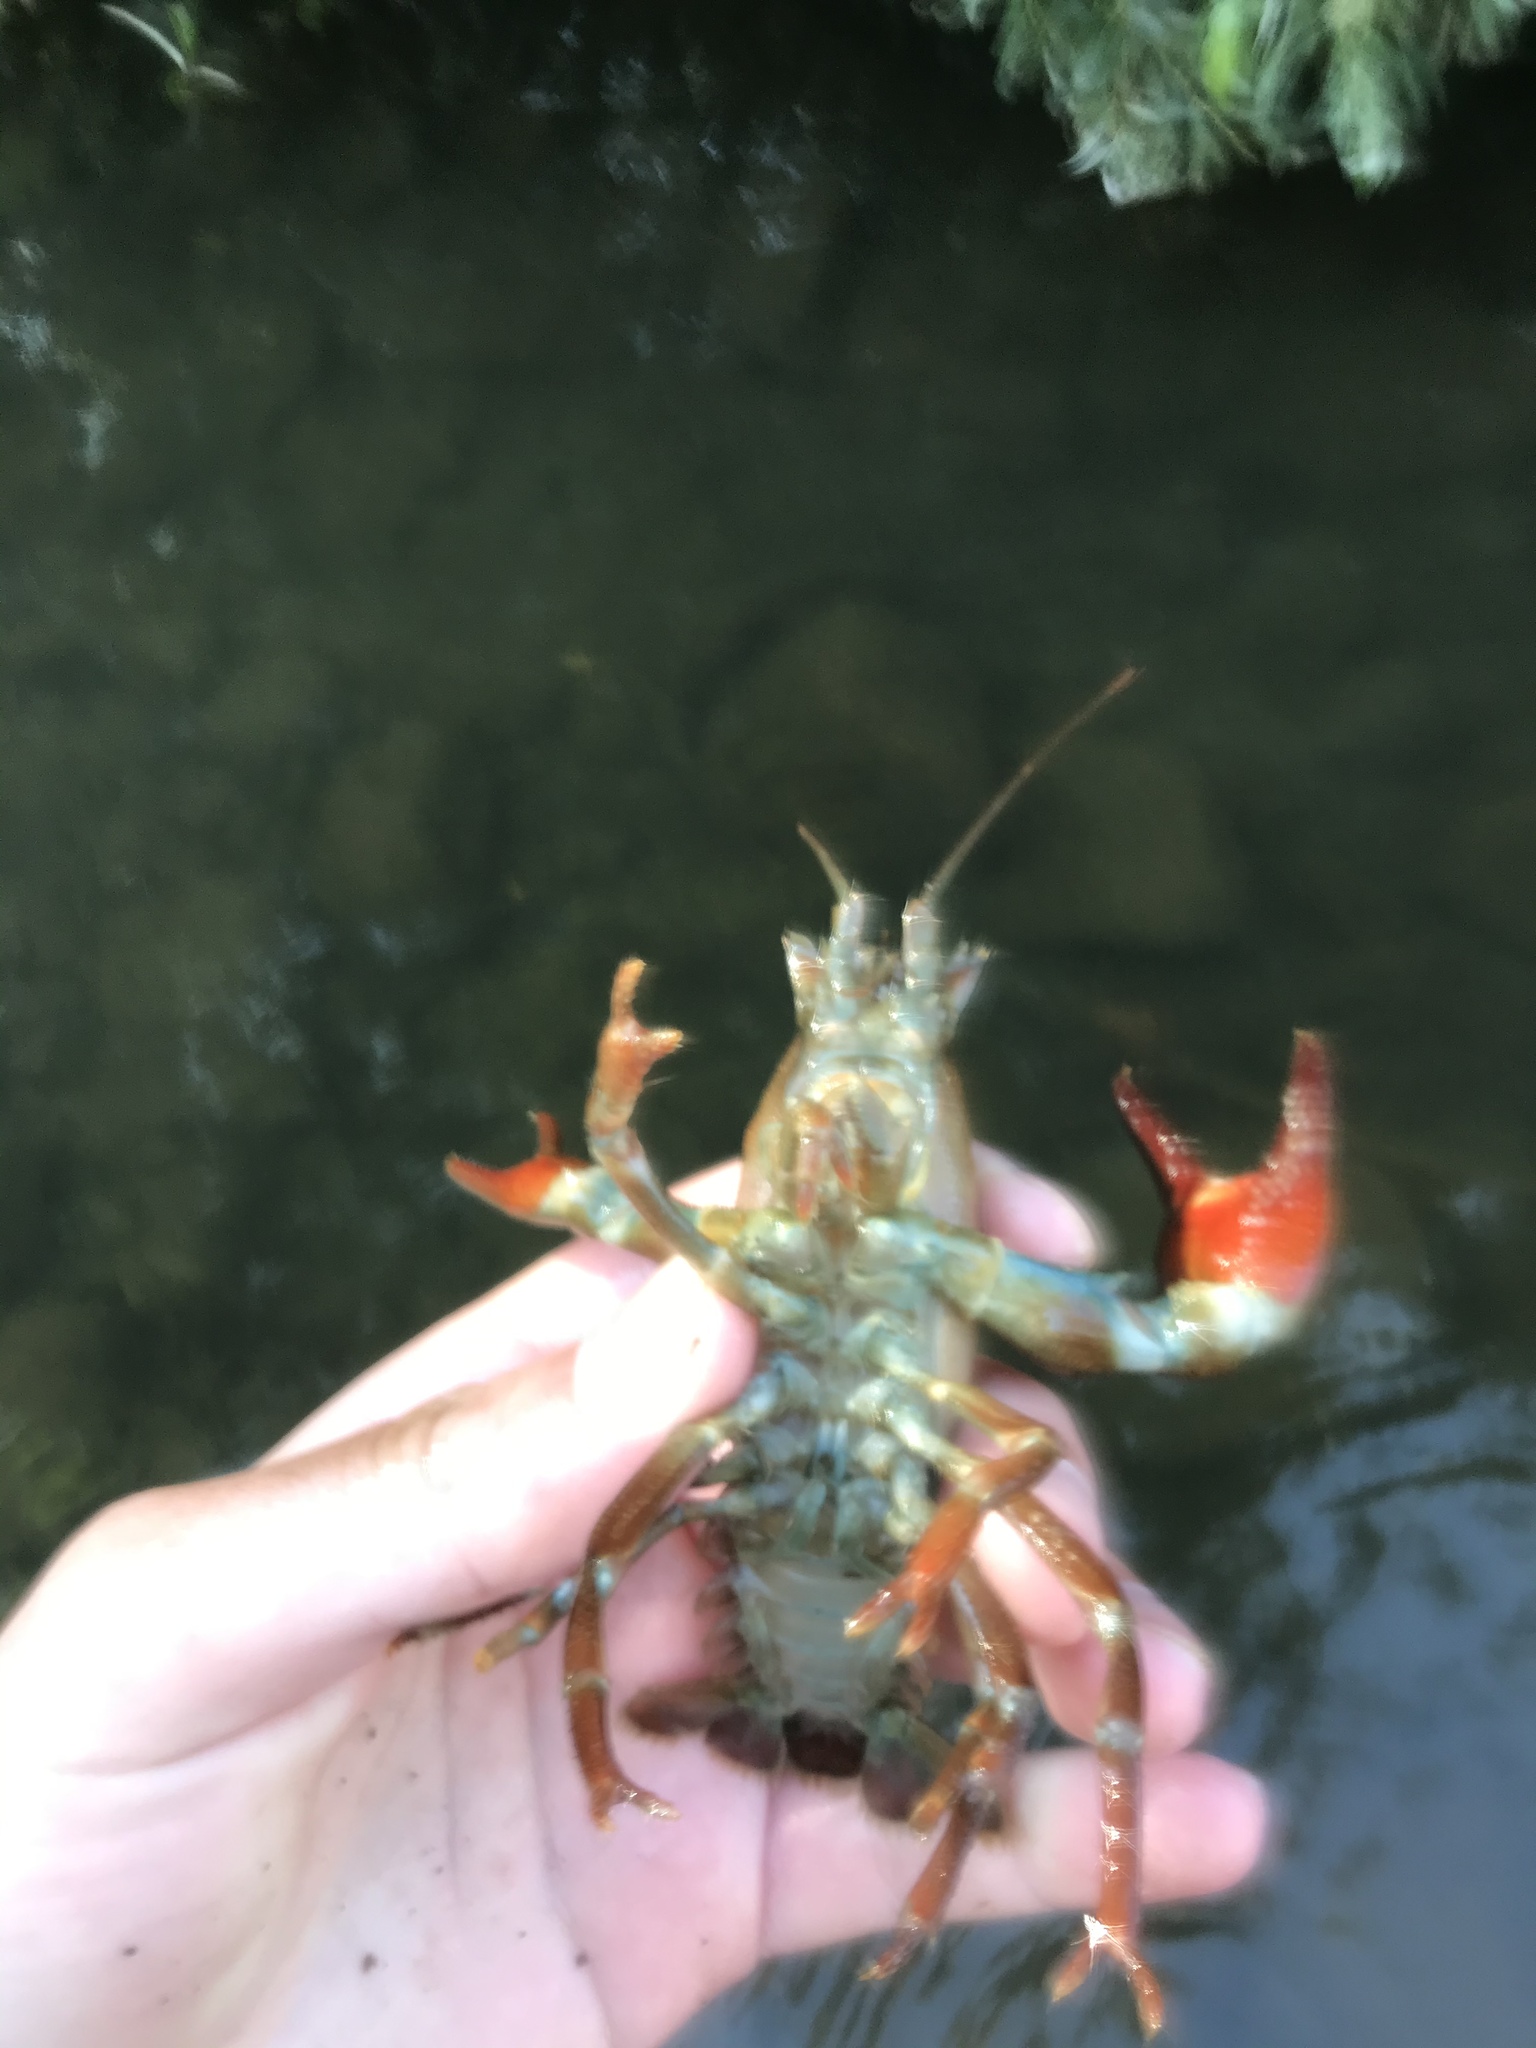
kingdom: Animalia
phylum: Arthropoda
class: Malacostraca
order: Decapoda
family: Astacidae
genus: Pacifastacus
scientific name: Pacifastacus leniusculus
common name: Signal crayfish
